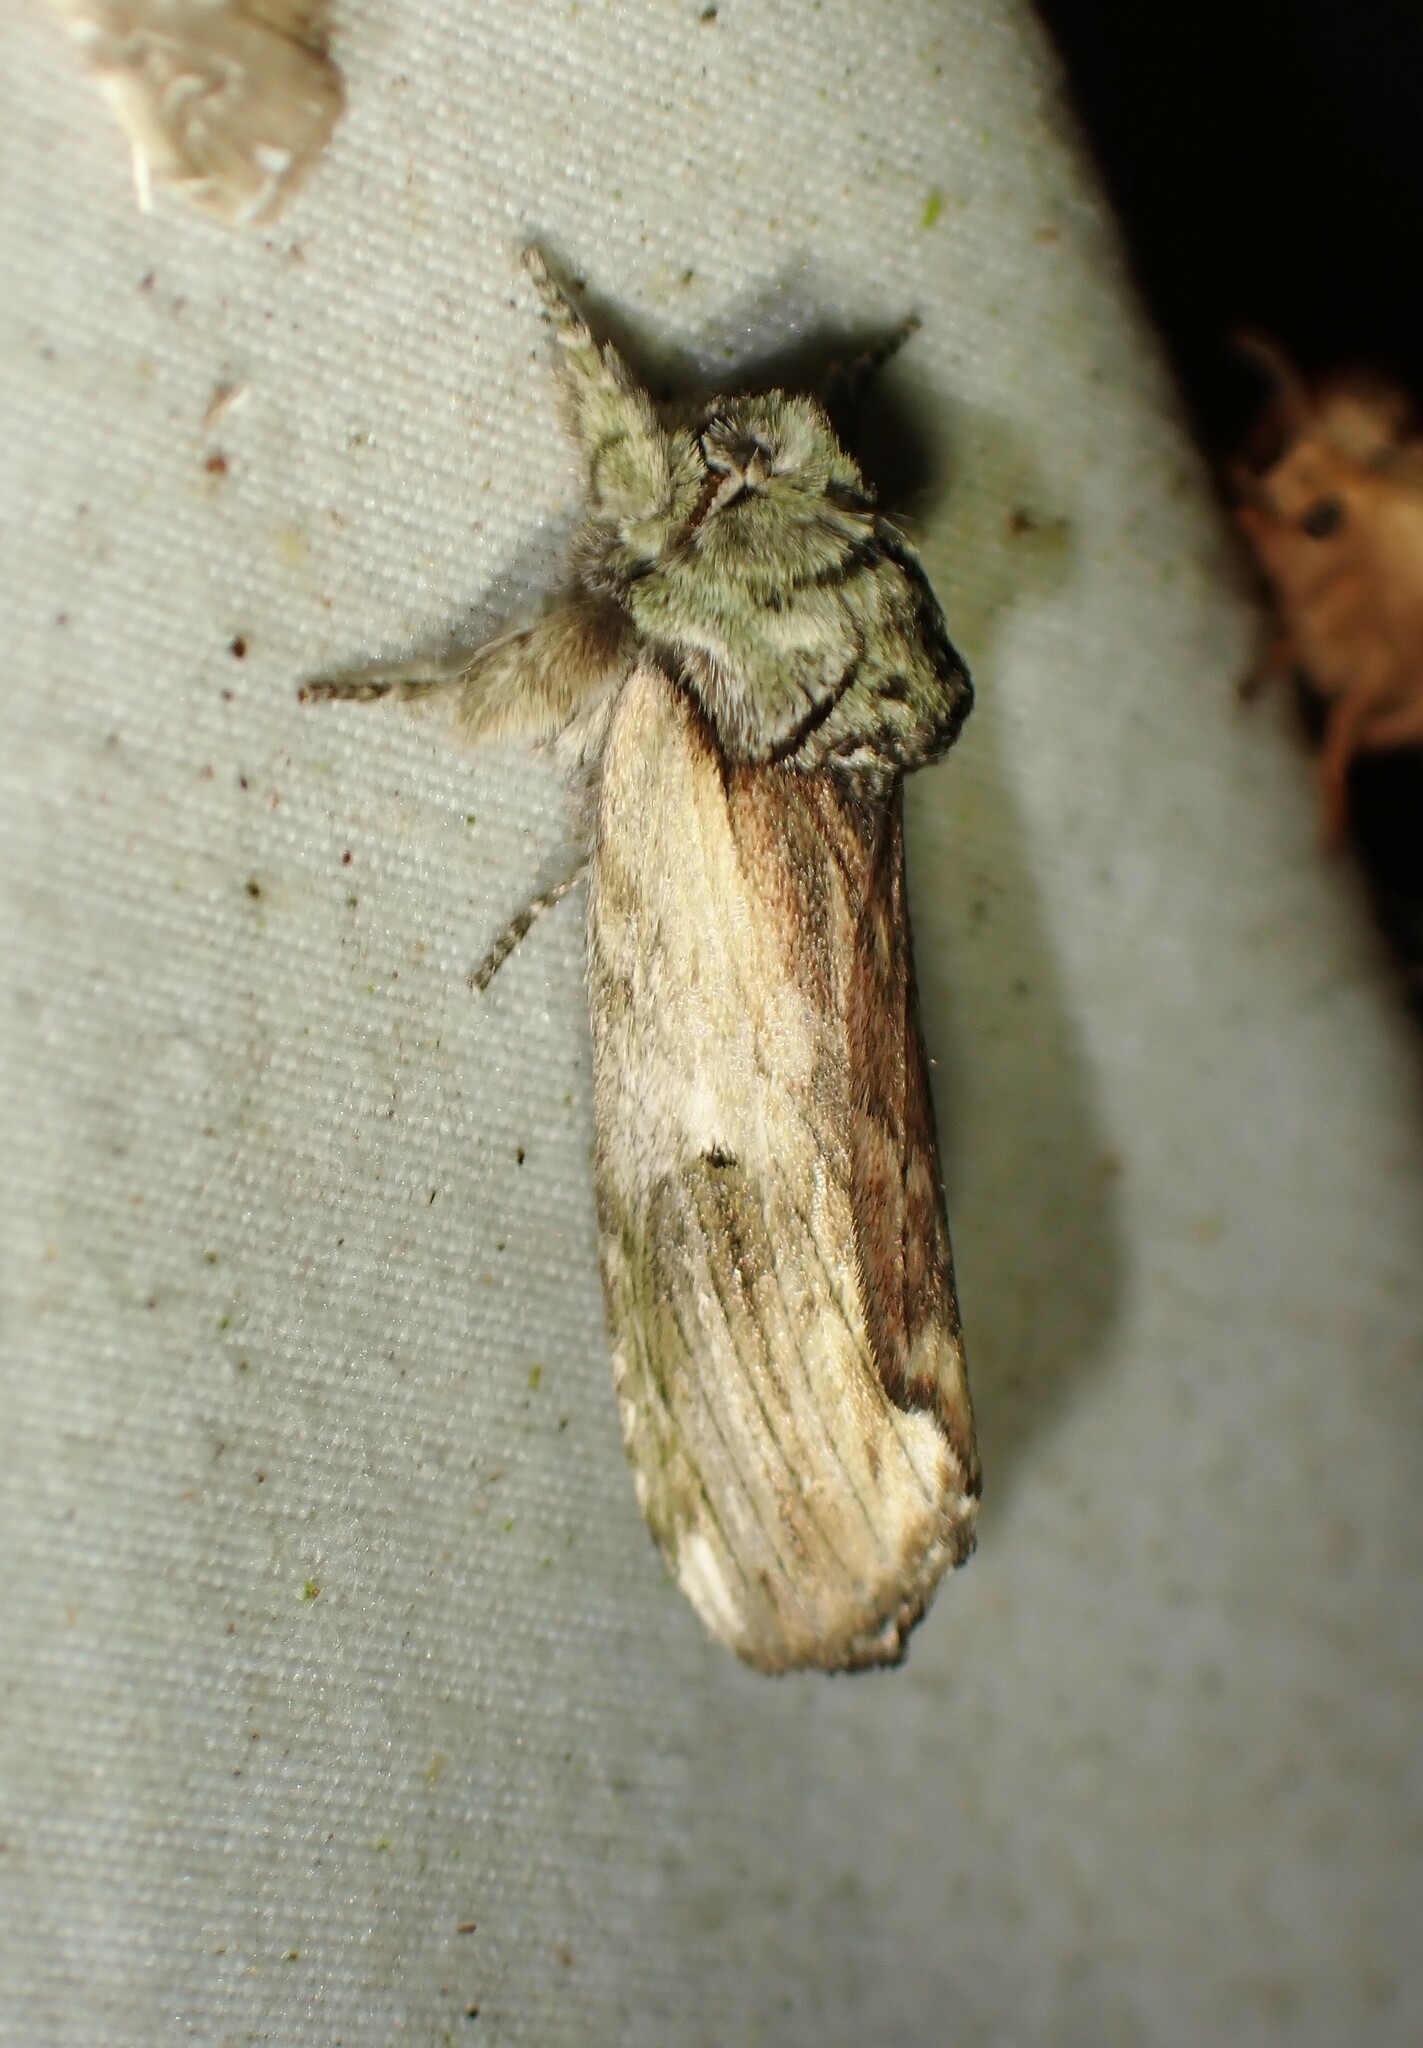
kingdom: Animalia
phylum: Arthropoda
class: Insecta
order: Lepidoptera
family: Notodontidae
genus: Schizura
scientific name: Schizura
